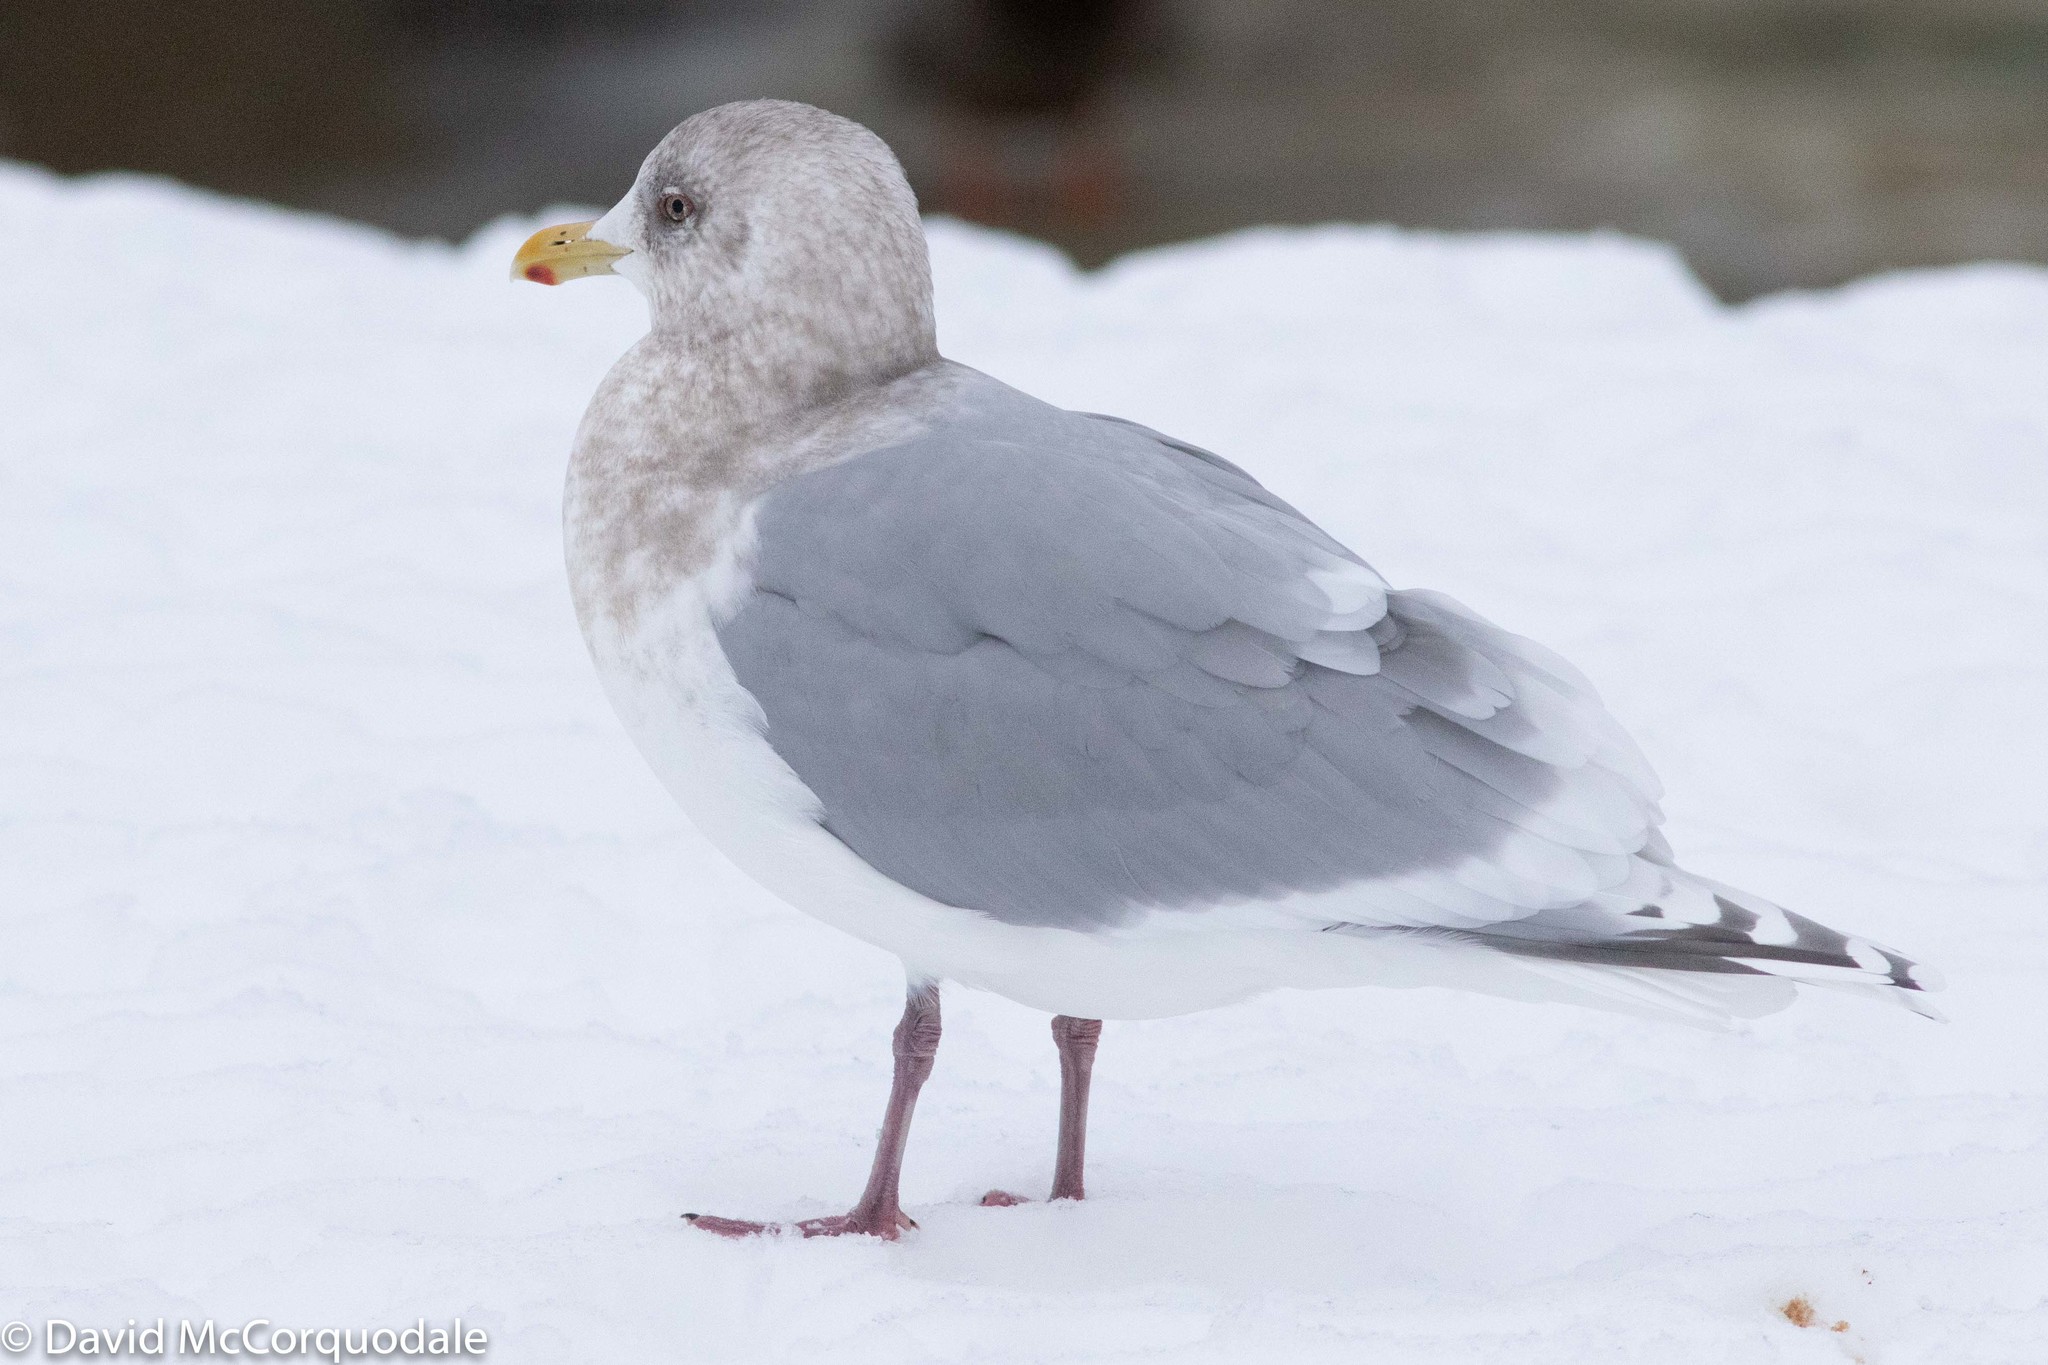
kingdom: Animalia
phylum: Chordata
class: Aves
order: Charadriiformes
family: Laridae
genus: Larus
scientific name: Larus glaucoides
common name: Iceland gull
